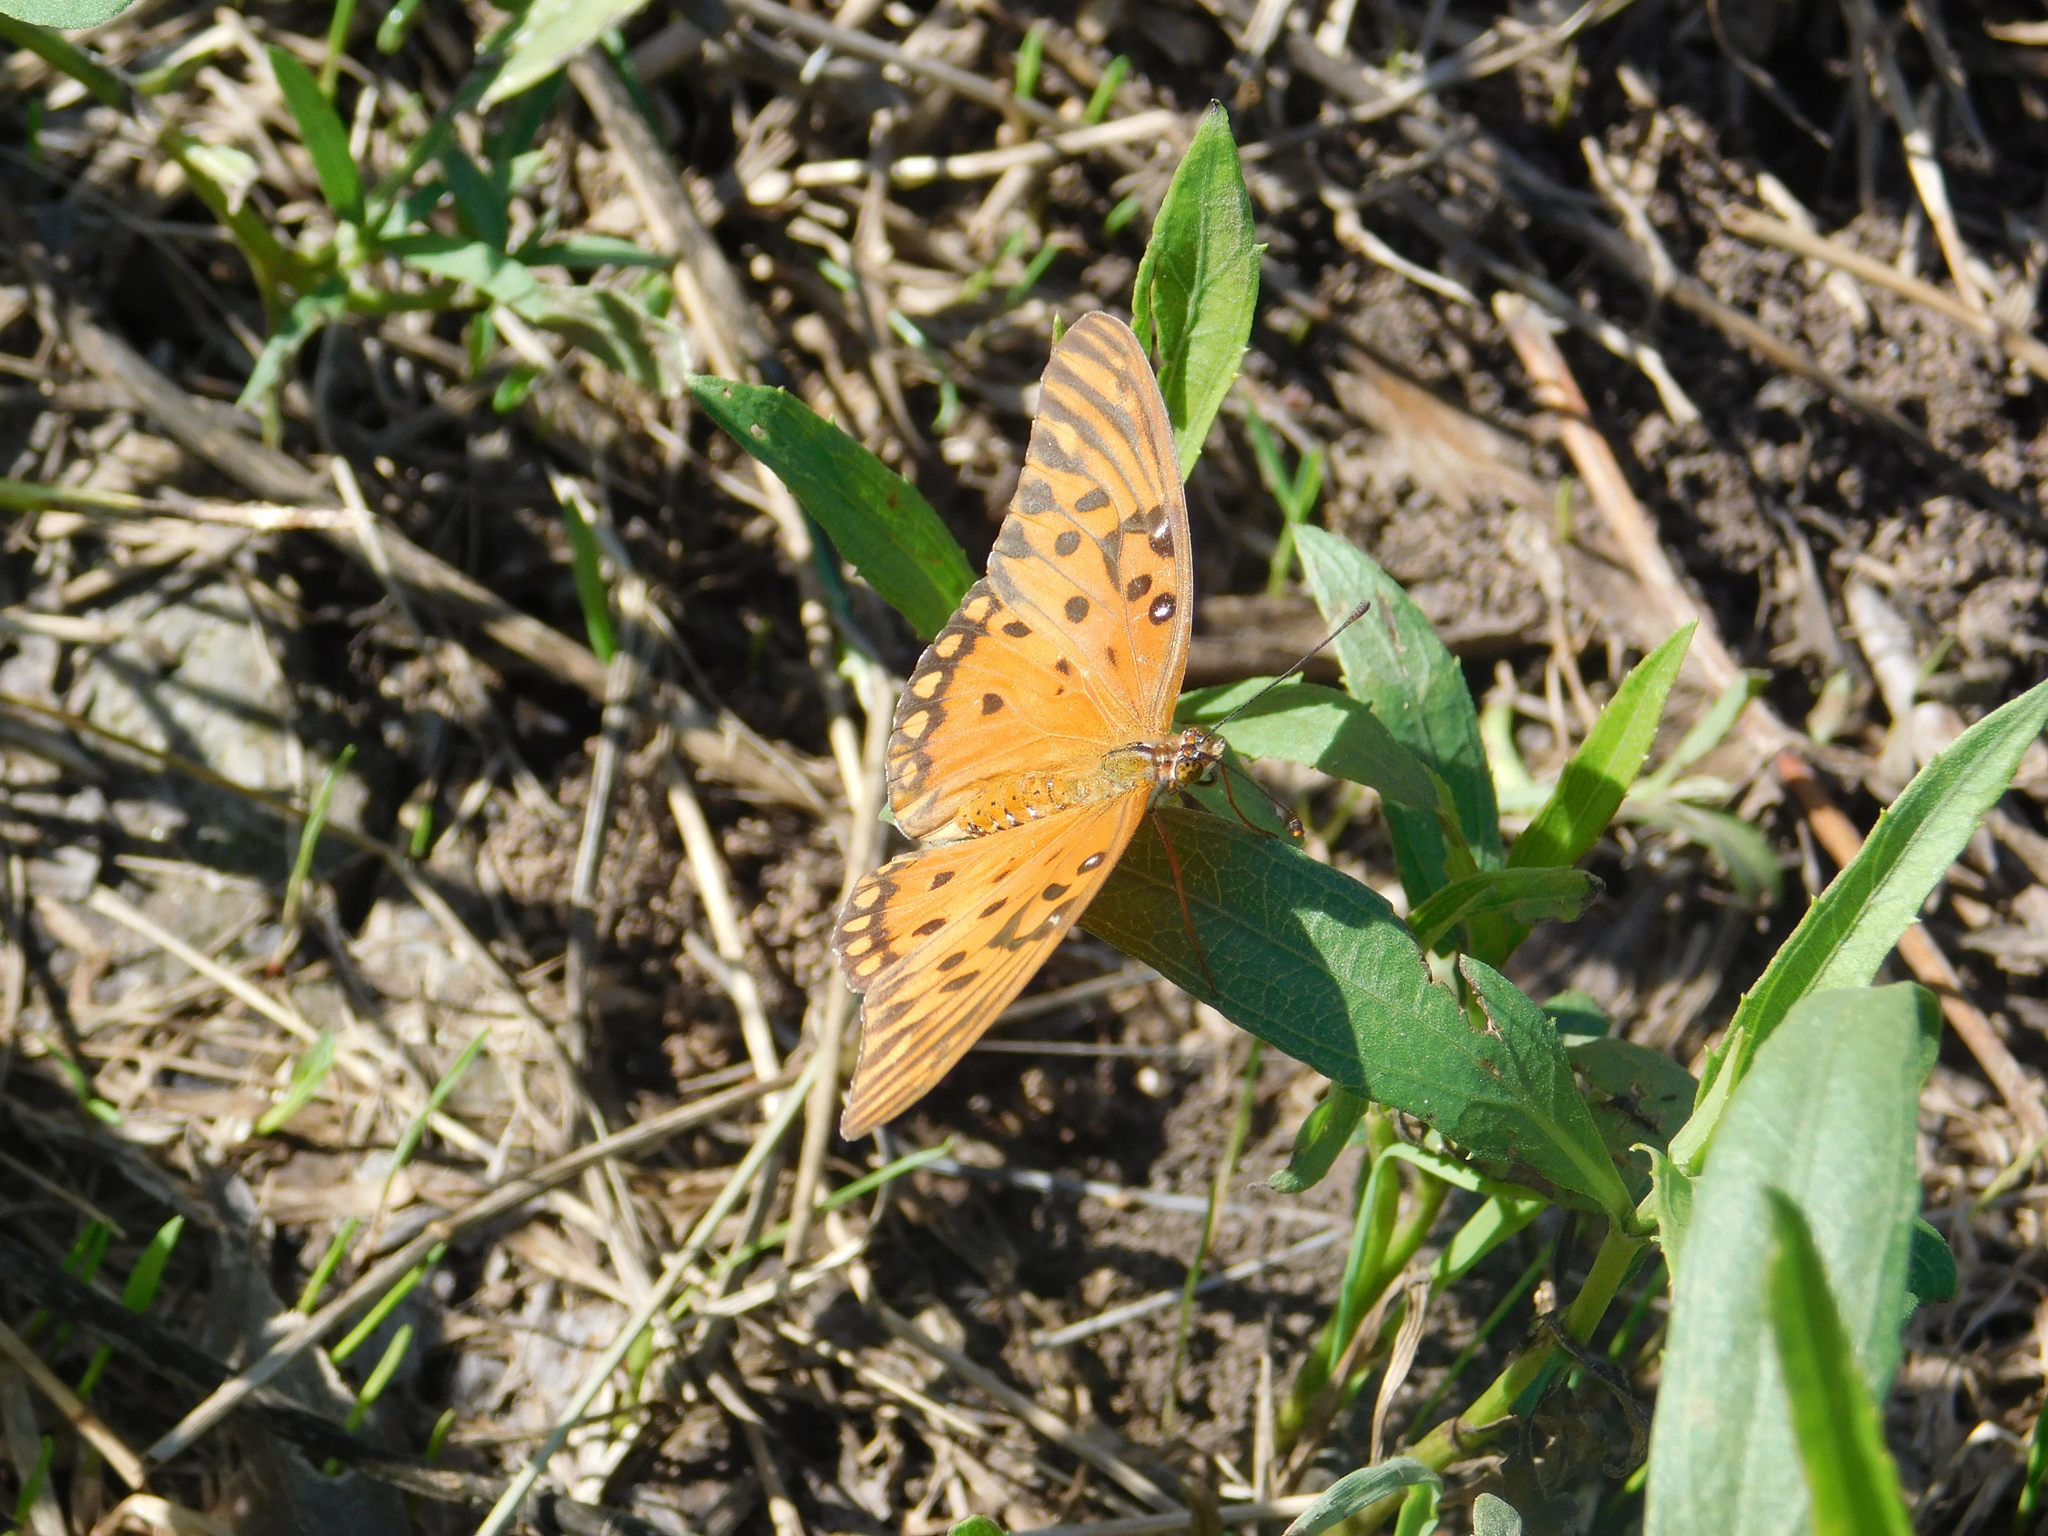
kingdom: Animalia
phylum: Arthropoda
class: Insecta
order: Lepidoptera
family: Nymphalidae
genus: Dione
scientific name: Dione vanillae
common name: Gulf fritillary
